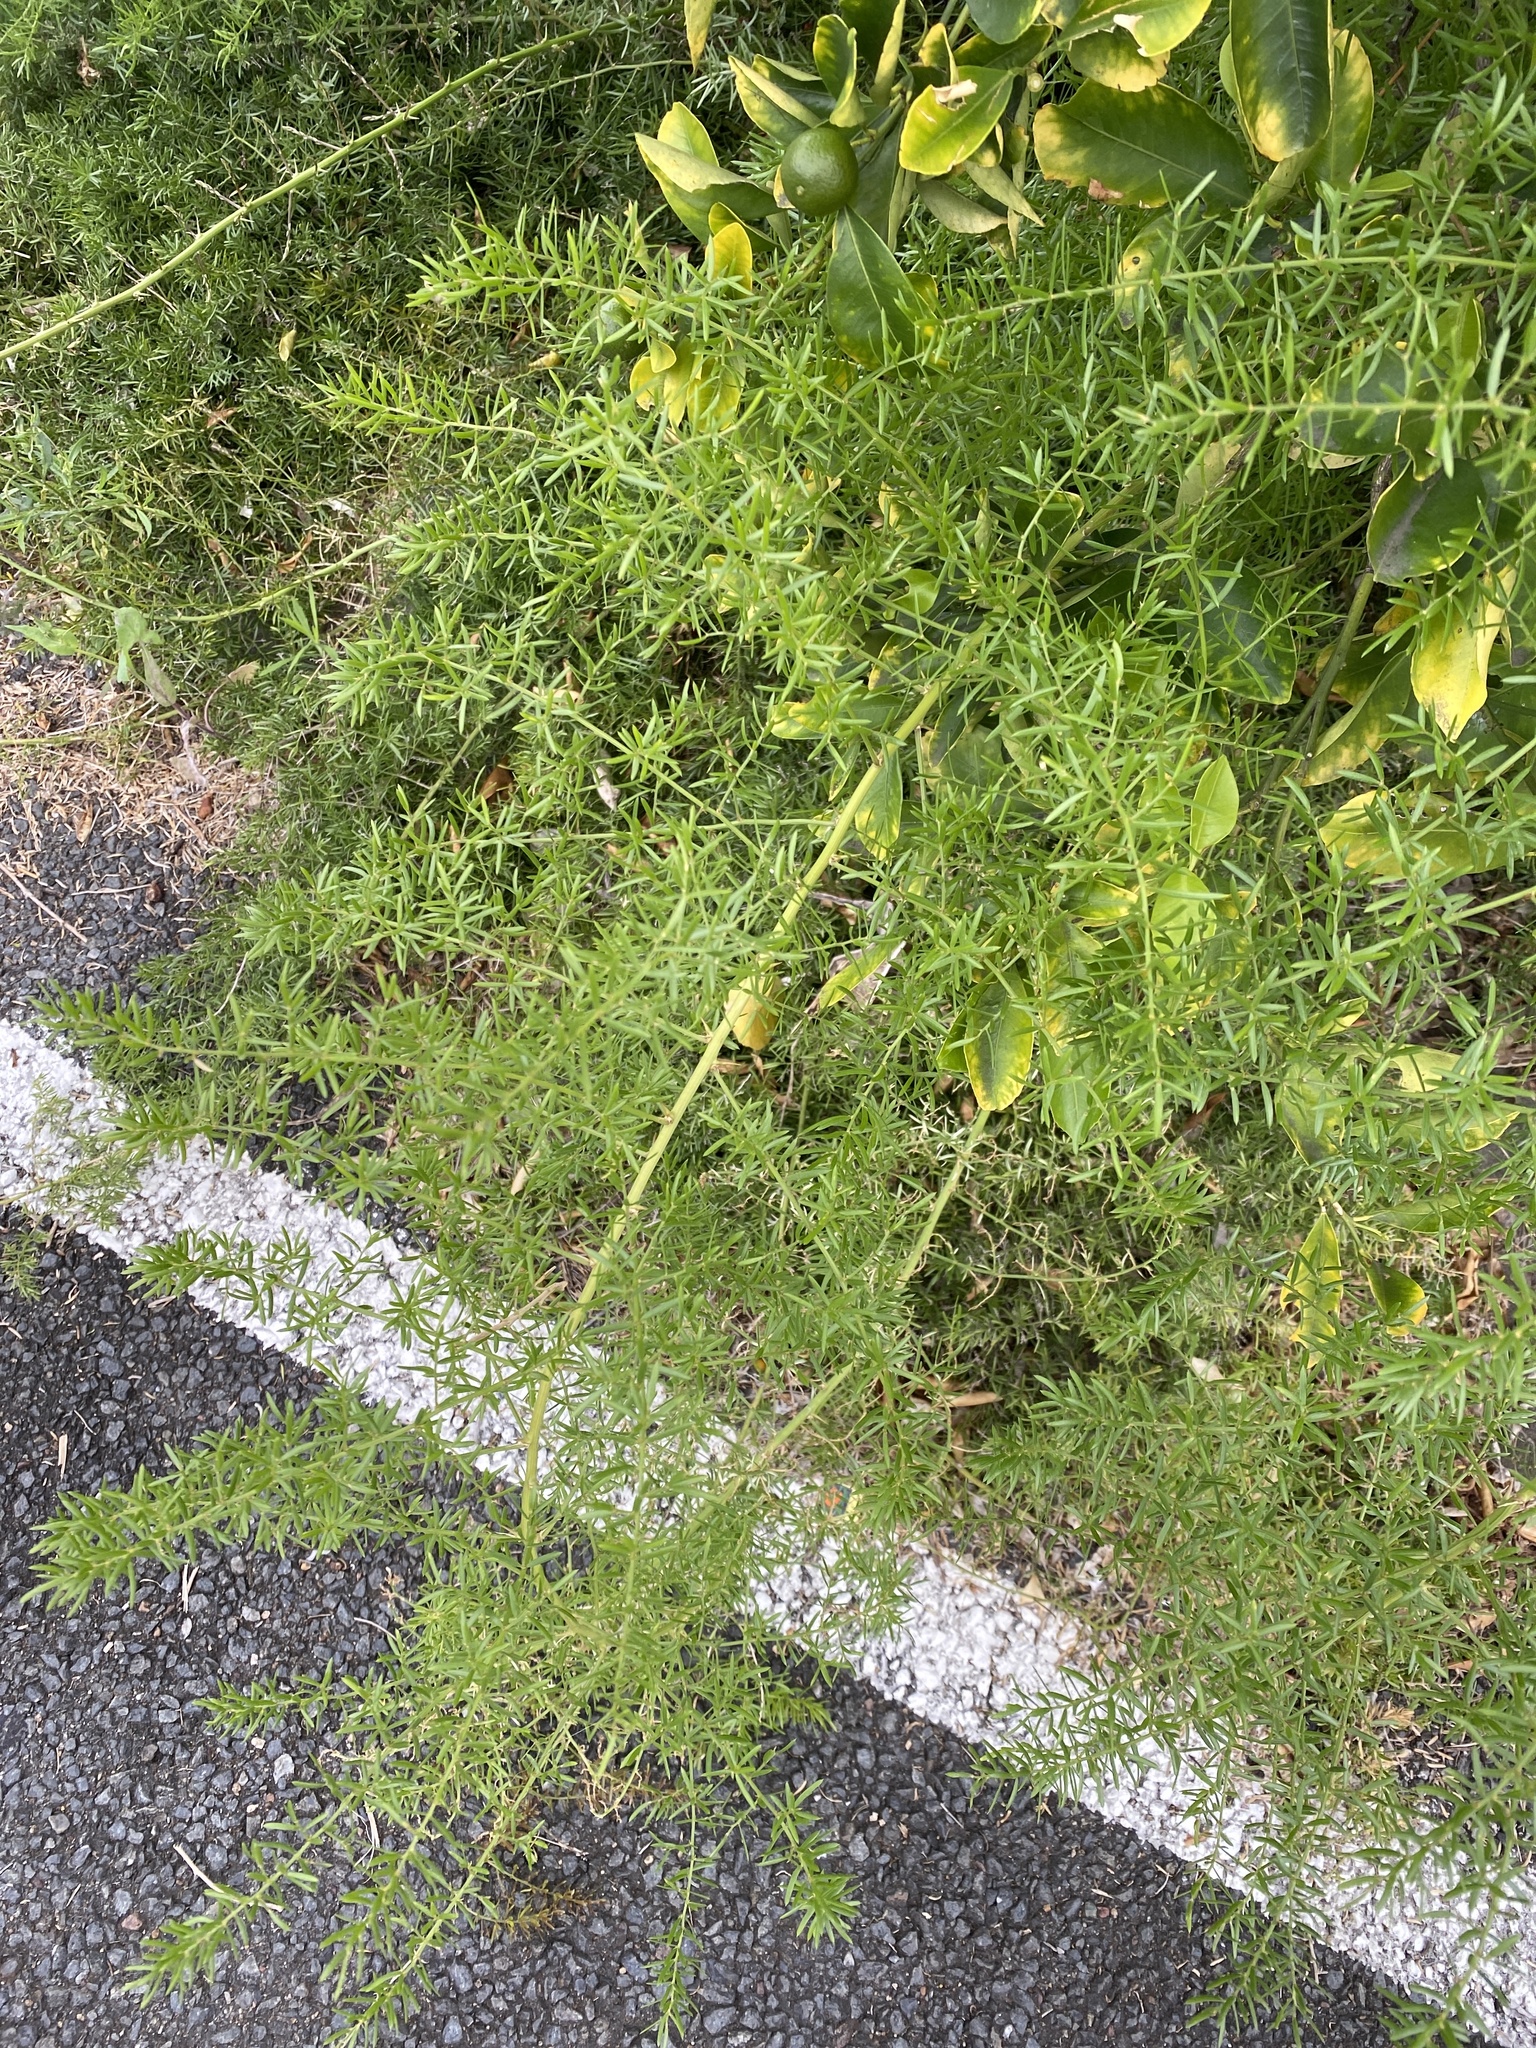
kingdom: Plantae
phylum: Tracheophyta
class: Liliopsida
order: Asparagales
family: Asparagaceae
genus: Asparagus
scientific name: Asparagus aethiopicus
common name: Sprenger's asparagus fern
